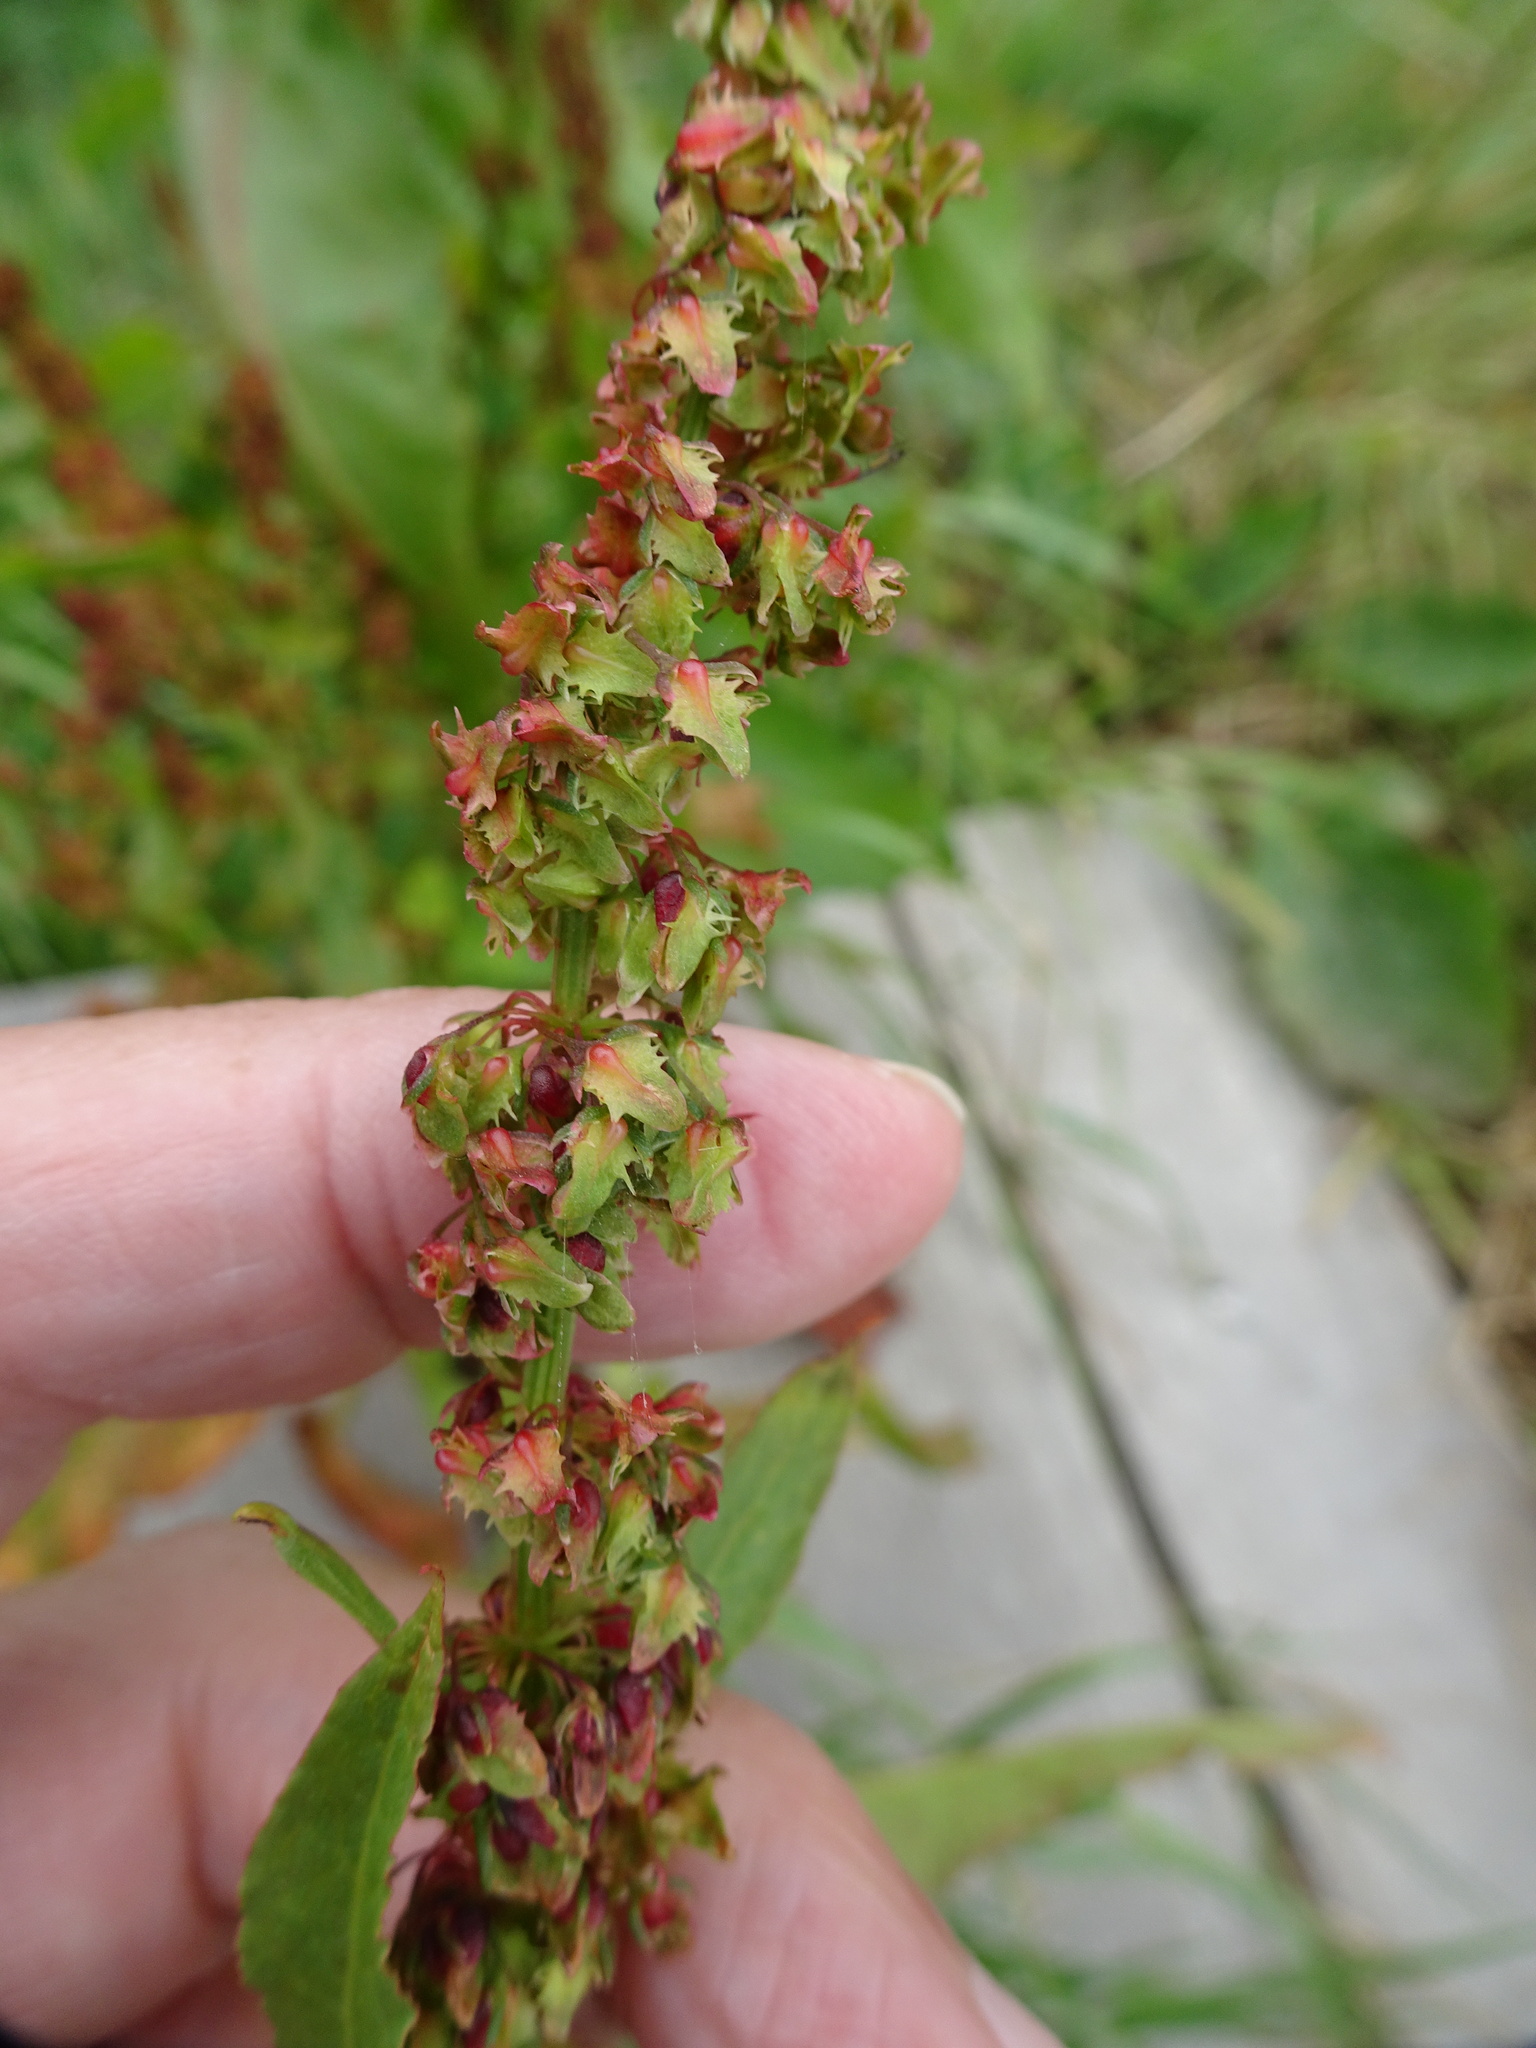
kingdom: Plantae
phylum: Tracheophyta
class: Magnoliopsida
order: Caryophyllales
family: Polygonaceae
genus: Rumex
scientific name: Rumex obtusifolius
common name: Bitter dock
